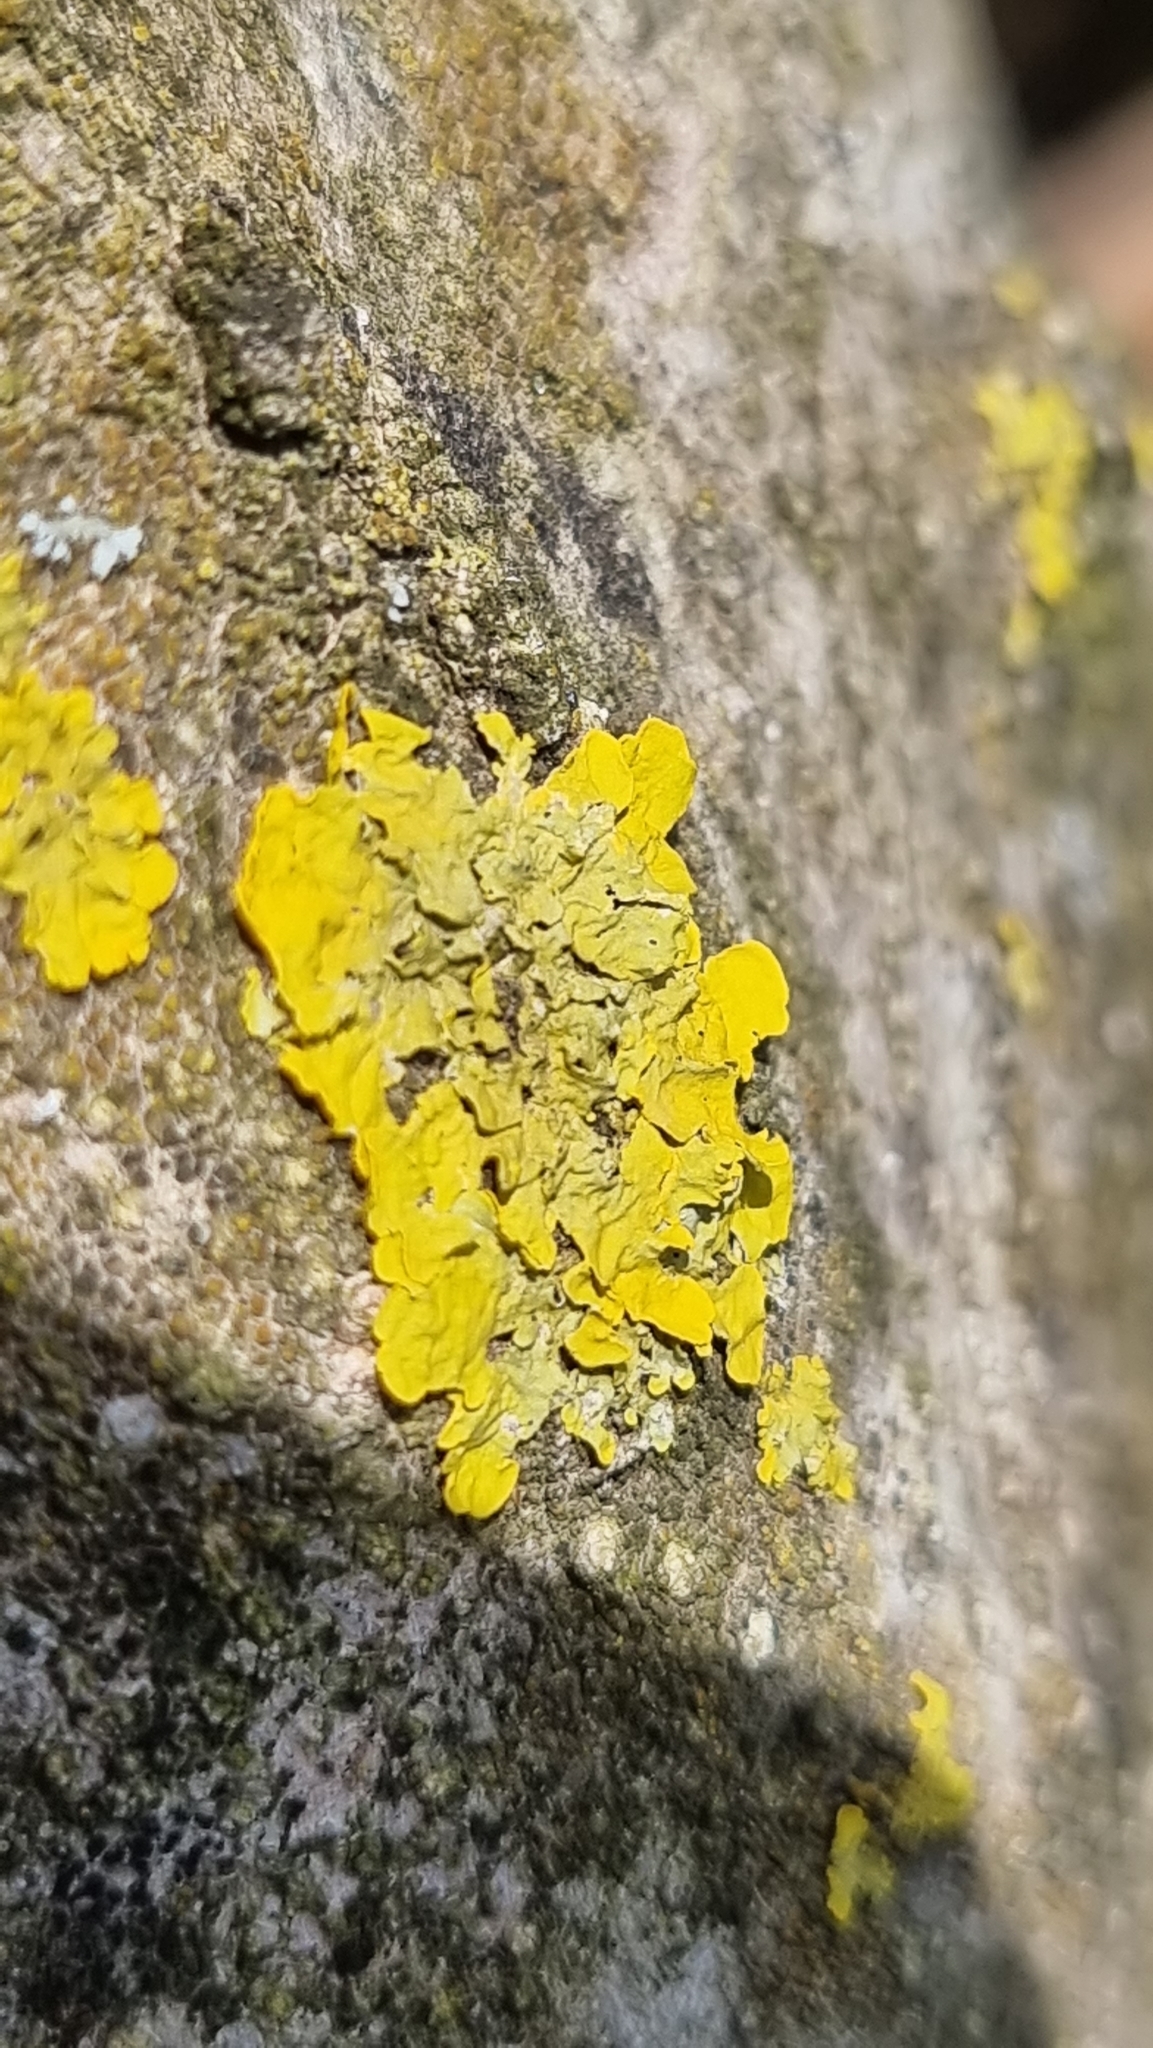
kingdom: Fungi
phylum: Ascomycota
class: Lecanoromycetes
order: Teloschistales
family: Teloschistaceae
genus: Xanthoria
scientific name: Xanthoria parietina
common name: Common orange lichen
